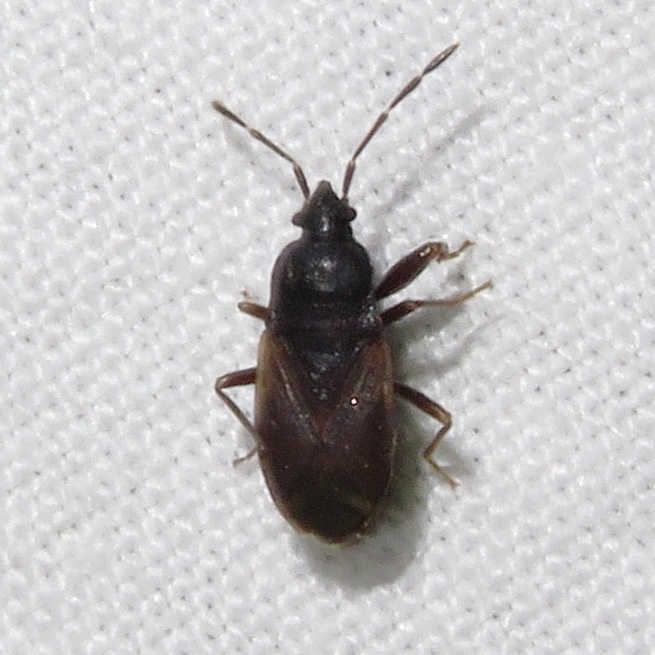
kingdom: Animalia
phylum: Arthropoda
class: Insecta
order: Hemiptera
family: Rhyparochromidae
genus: Drymus
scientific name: Drymus unus
